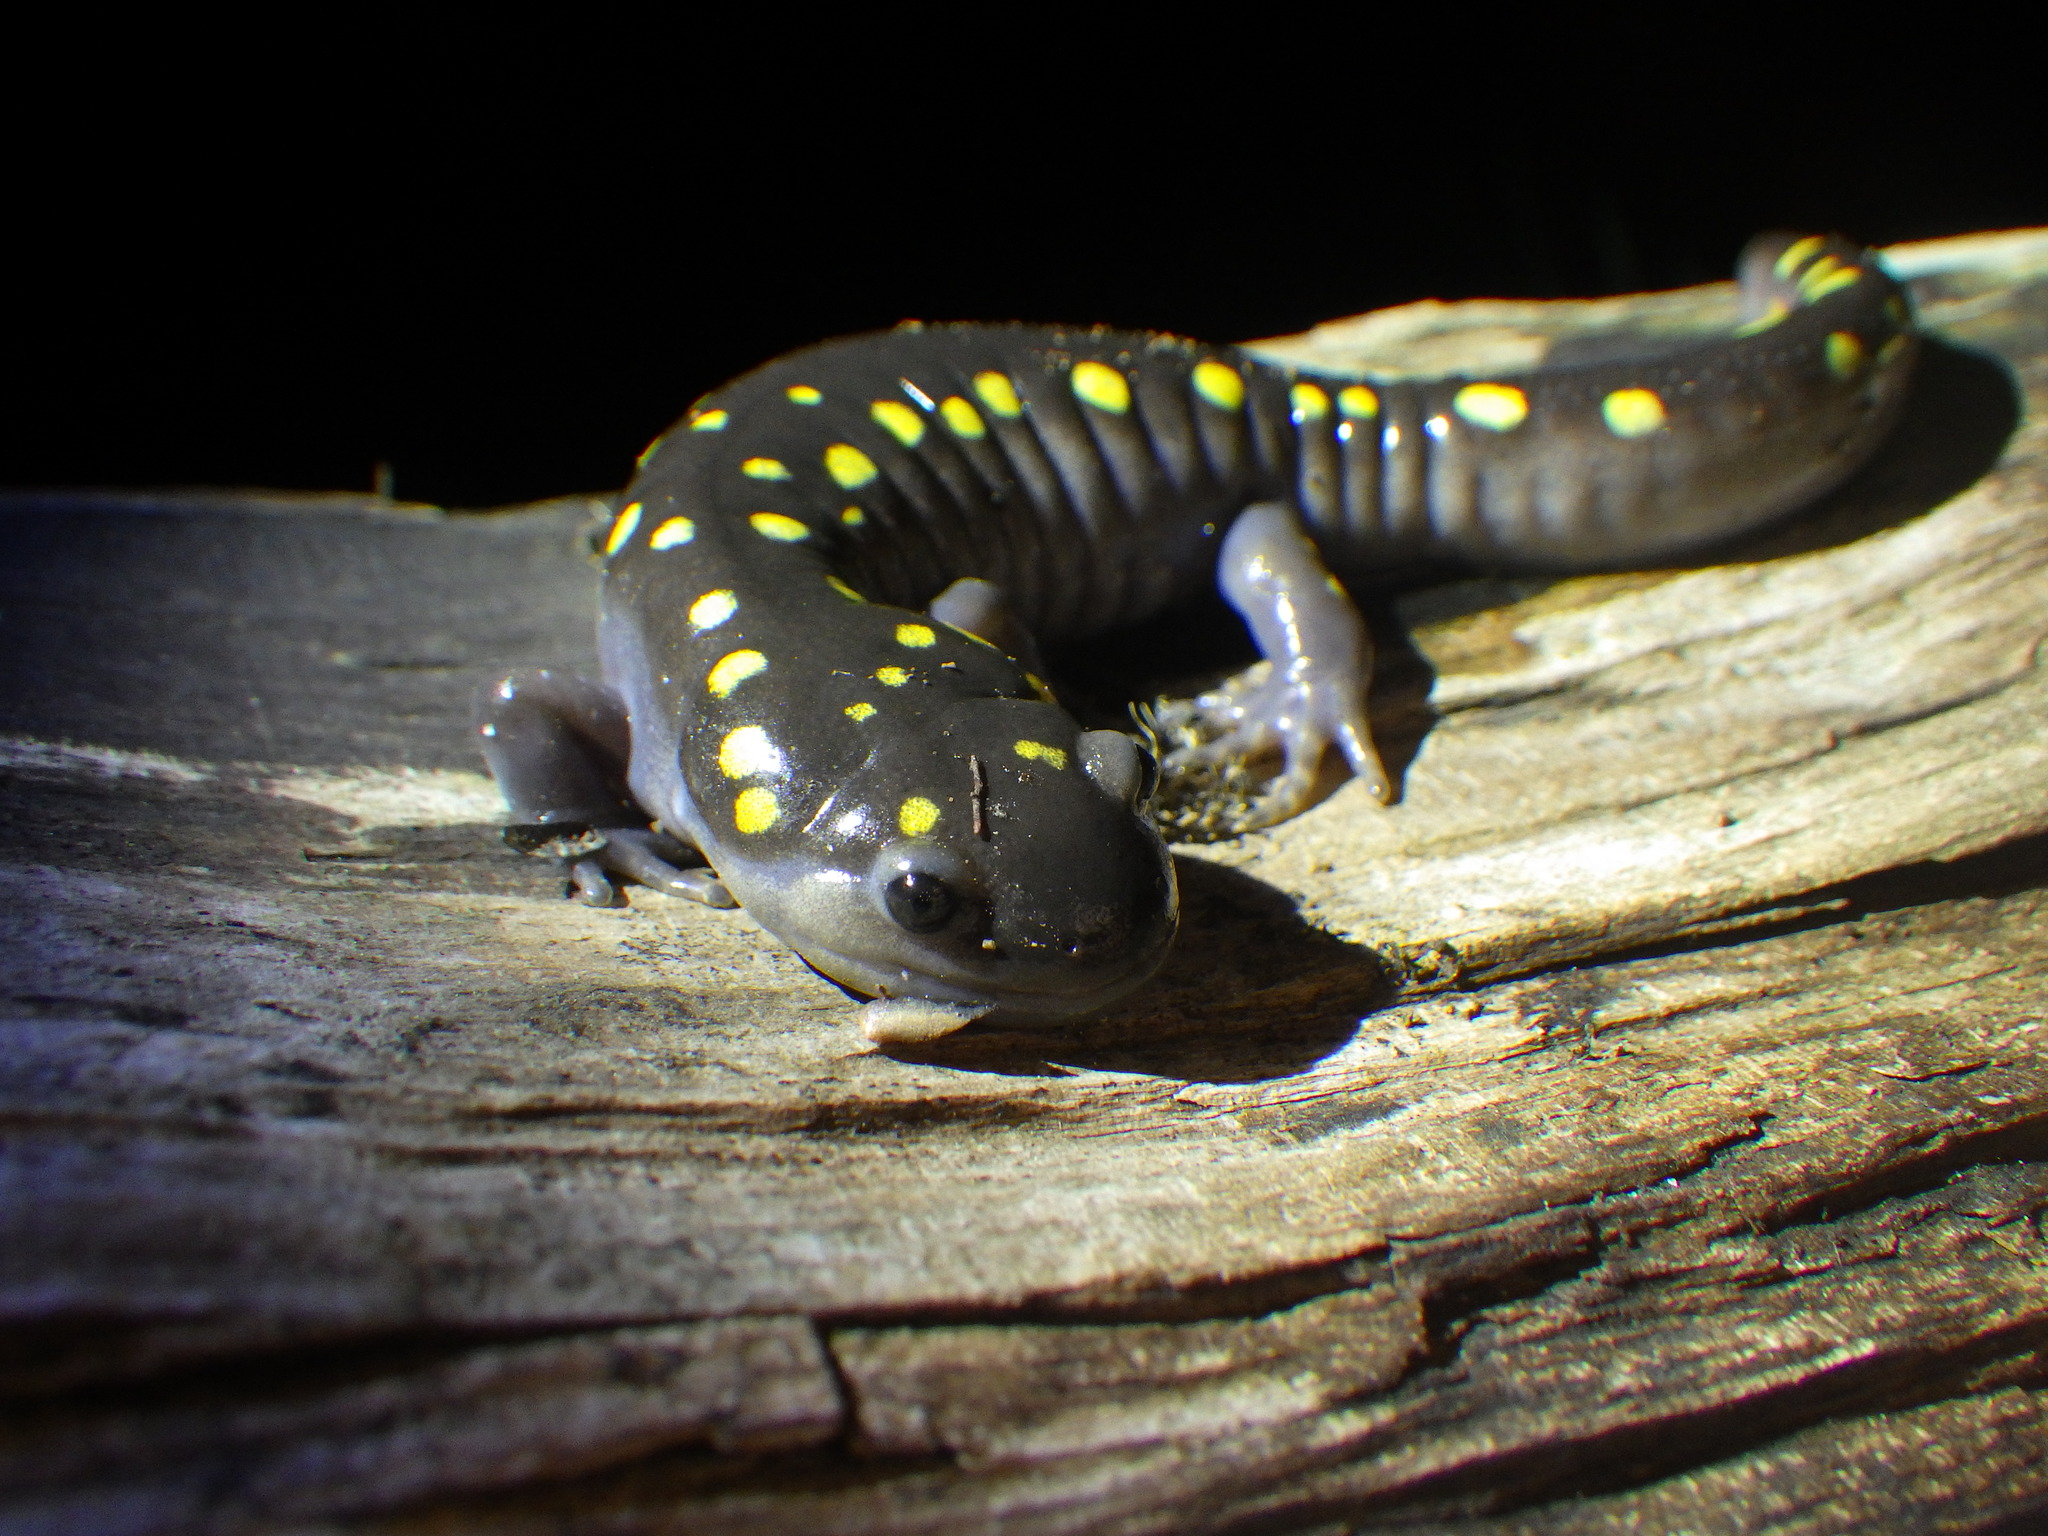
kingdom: Animalia
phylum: Chordata
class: Amphibia
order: Caudata
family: Ambystomatidae
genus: Ambystoma
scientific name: Ambystoma maculatum
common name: Spotted salamander
